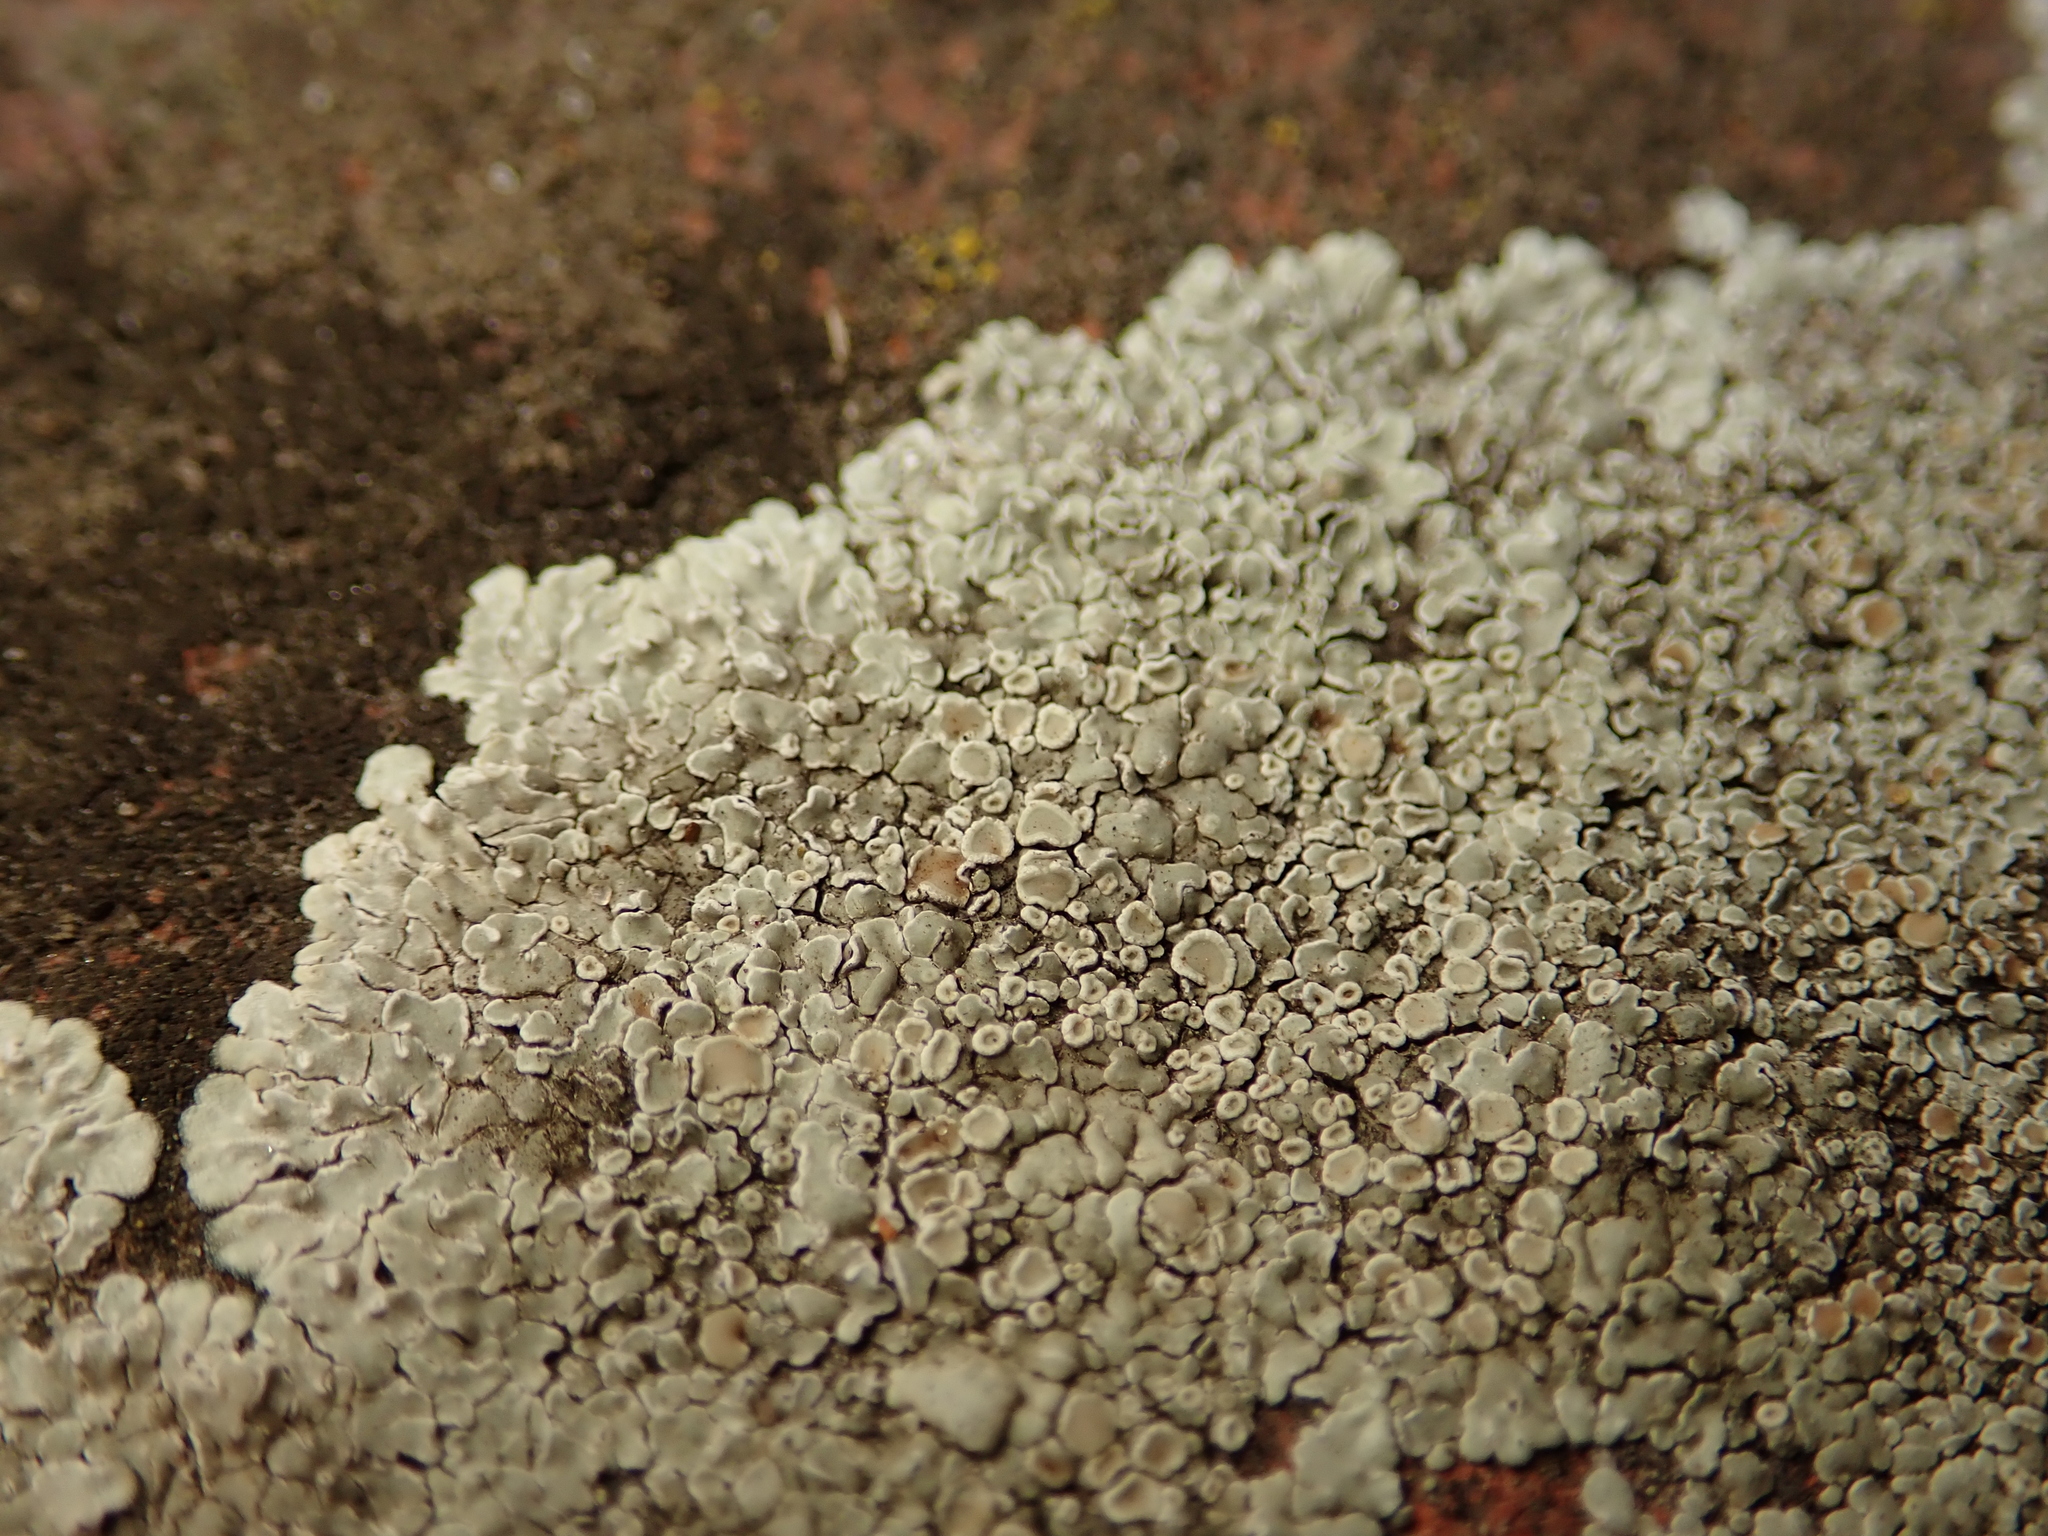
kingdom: Fungi
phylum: Ascomycota
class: Lecanoromycetes
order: Lecanorales
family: Lecanoraceae
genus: Protoparmeliopsis
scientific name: Protoparmeliopsis muralis
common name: Stonewall rim lichen
